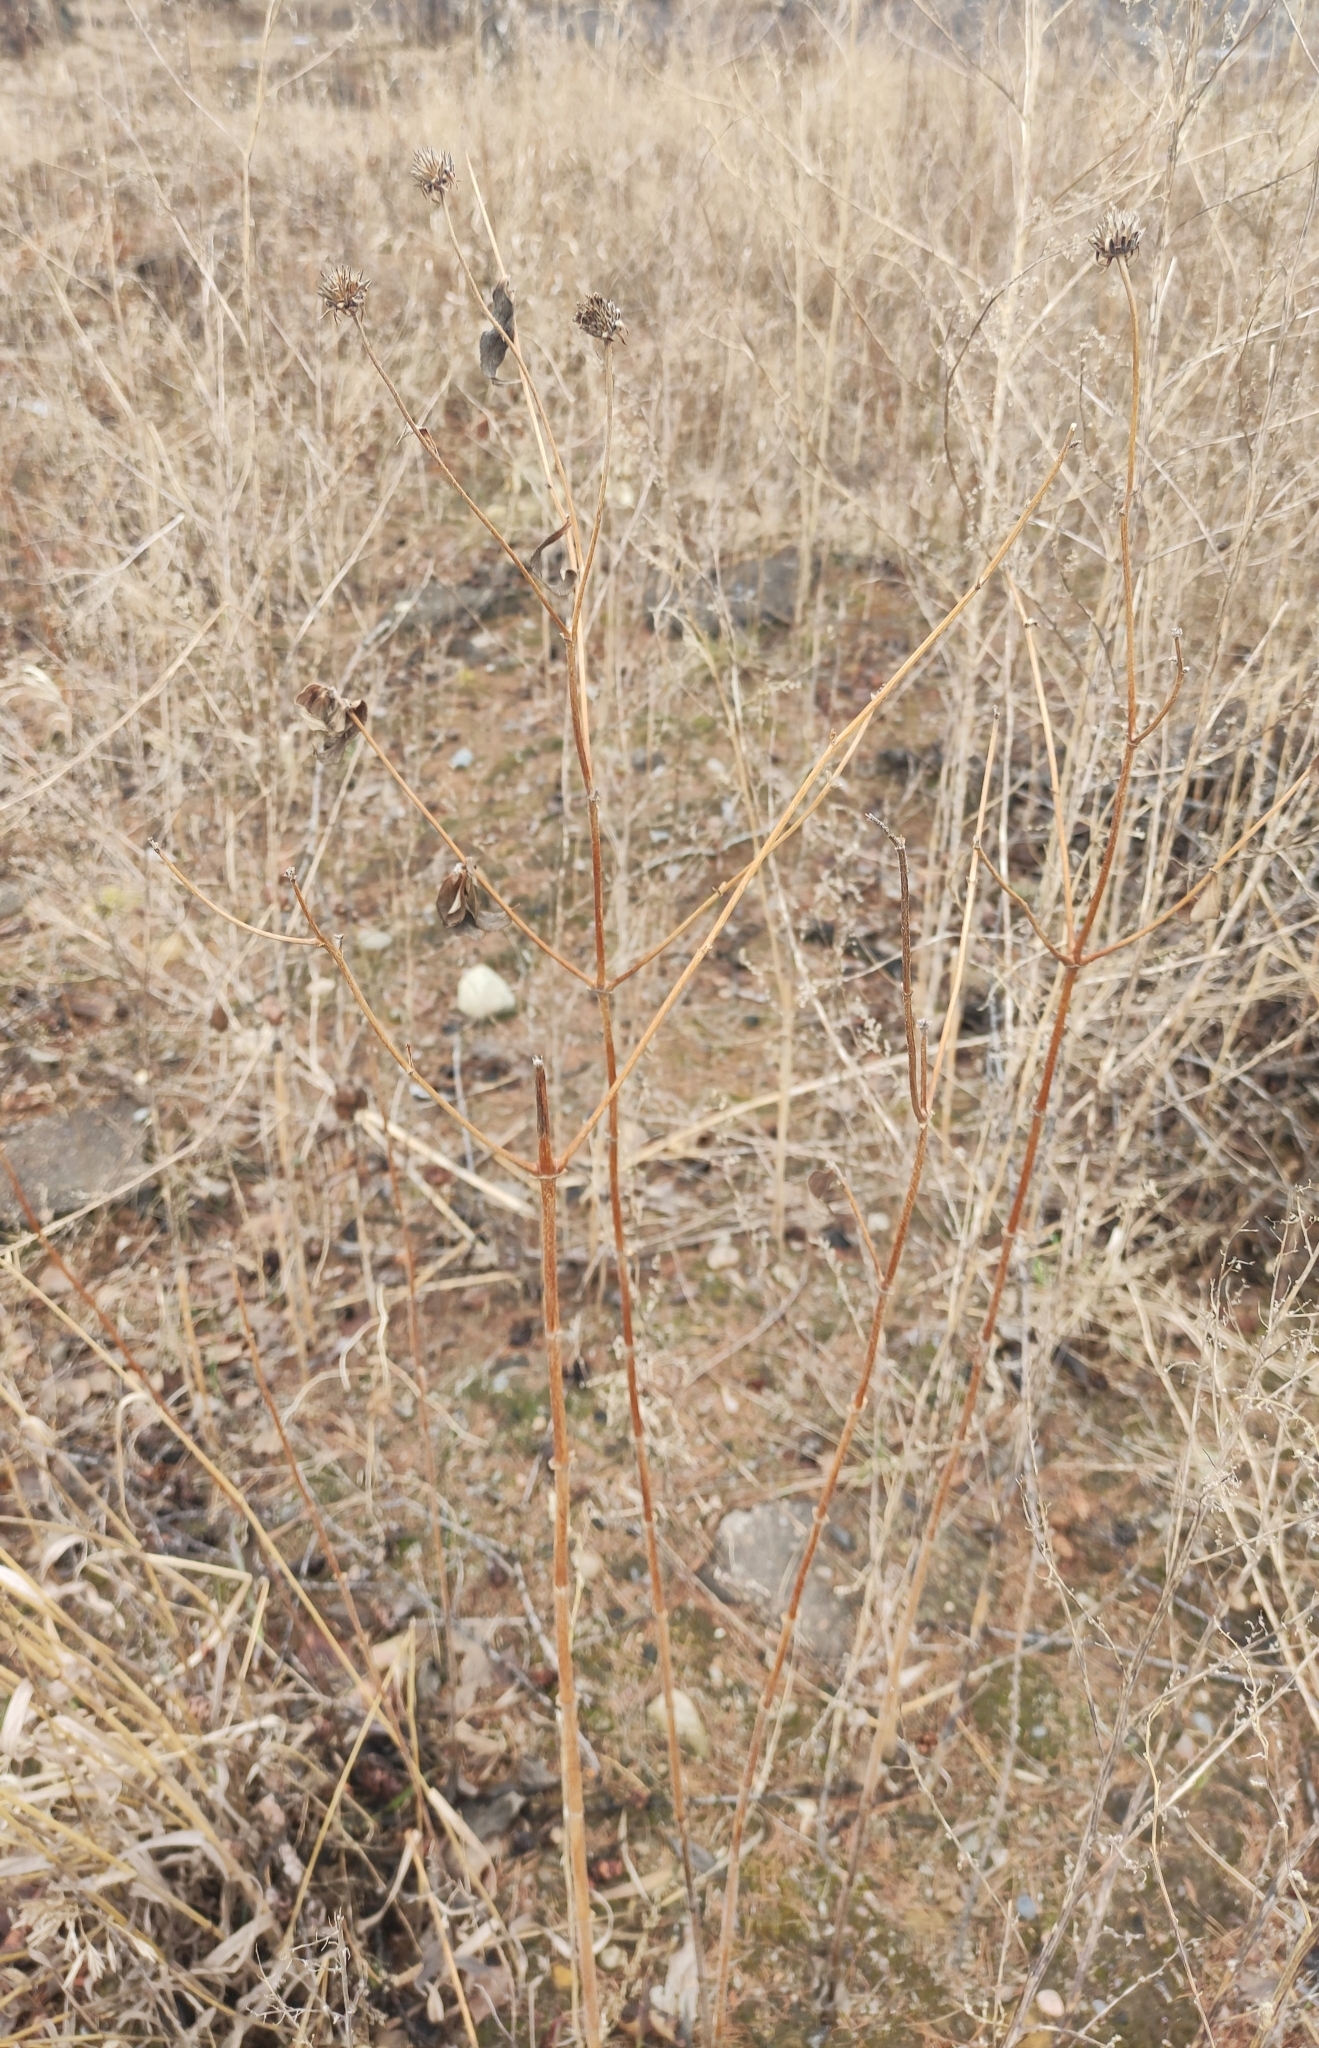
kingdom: Plantae
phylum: Tracheophyta
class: Magnoliopsida
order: Asterales
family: Asteraceae
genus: Helianthus
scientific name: Helianthus tuberosus
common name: Jerusalem artichoke
